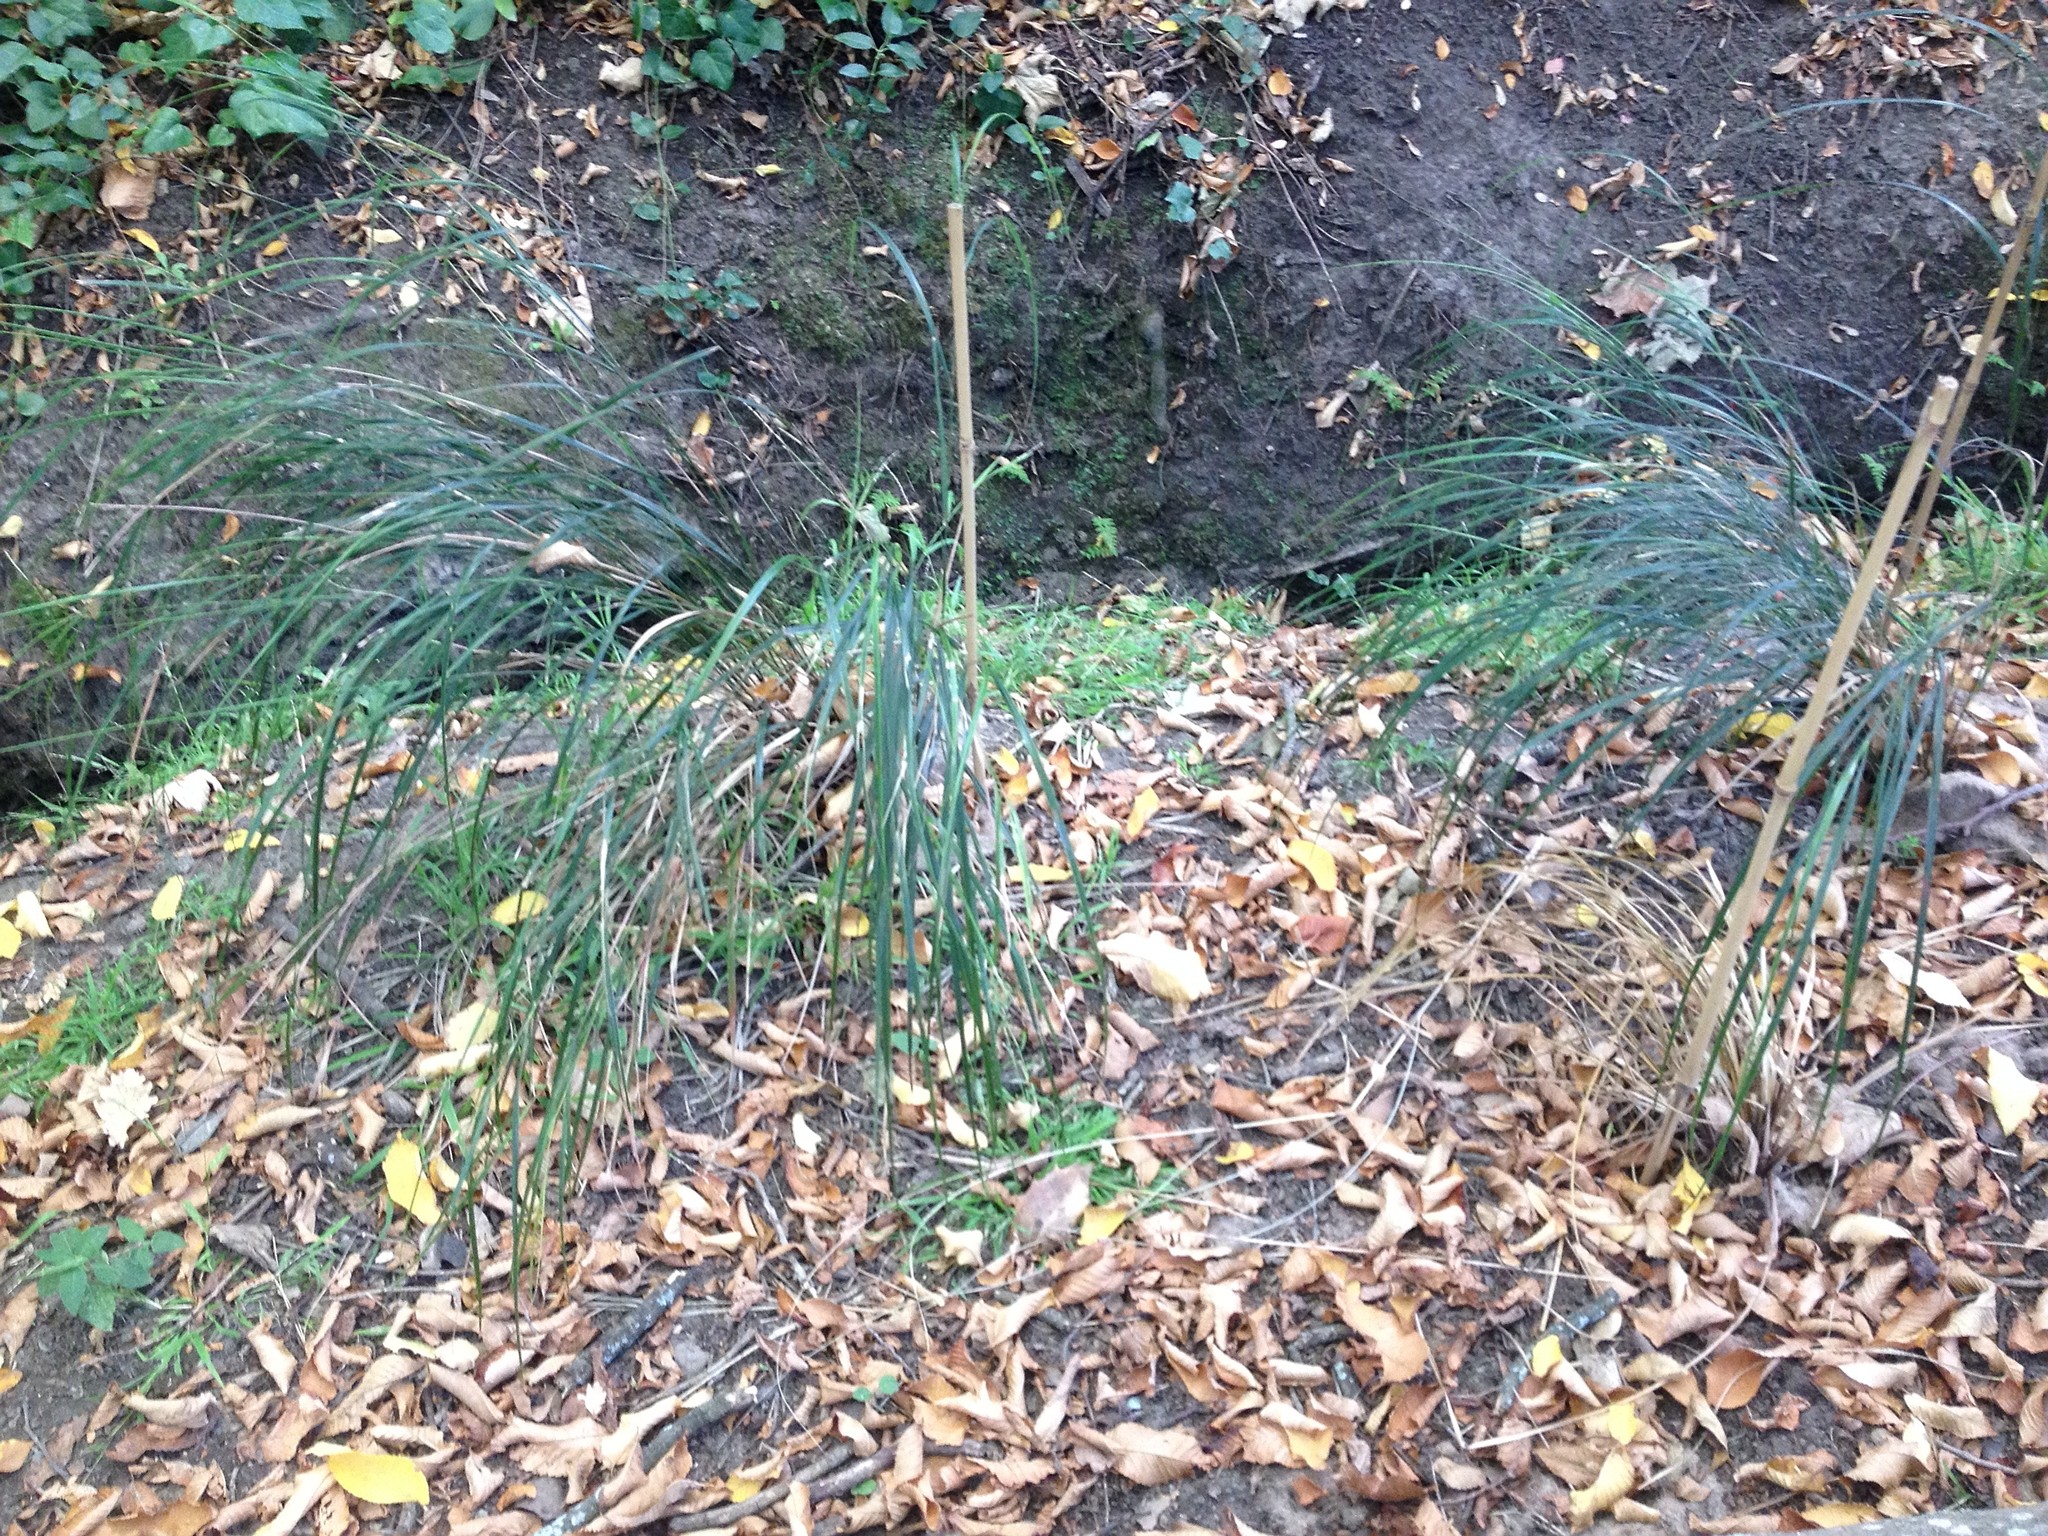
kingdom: Plantae
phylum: Tracheophyta
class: Liliopsida
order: Poales
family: Poaceae
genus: Anemanthele
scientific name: Anemanthele lessoniana
